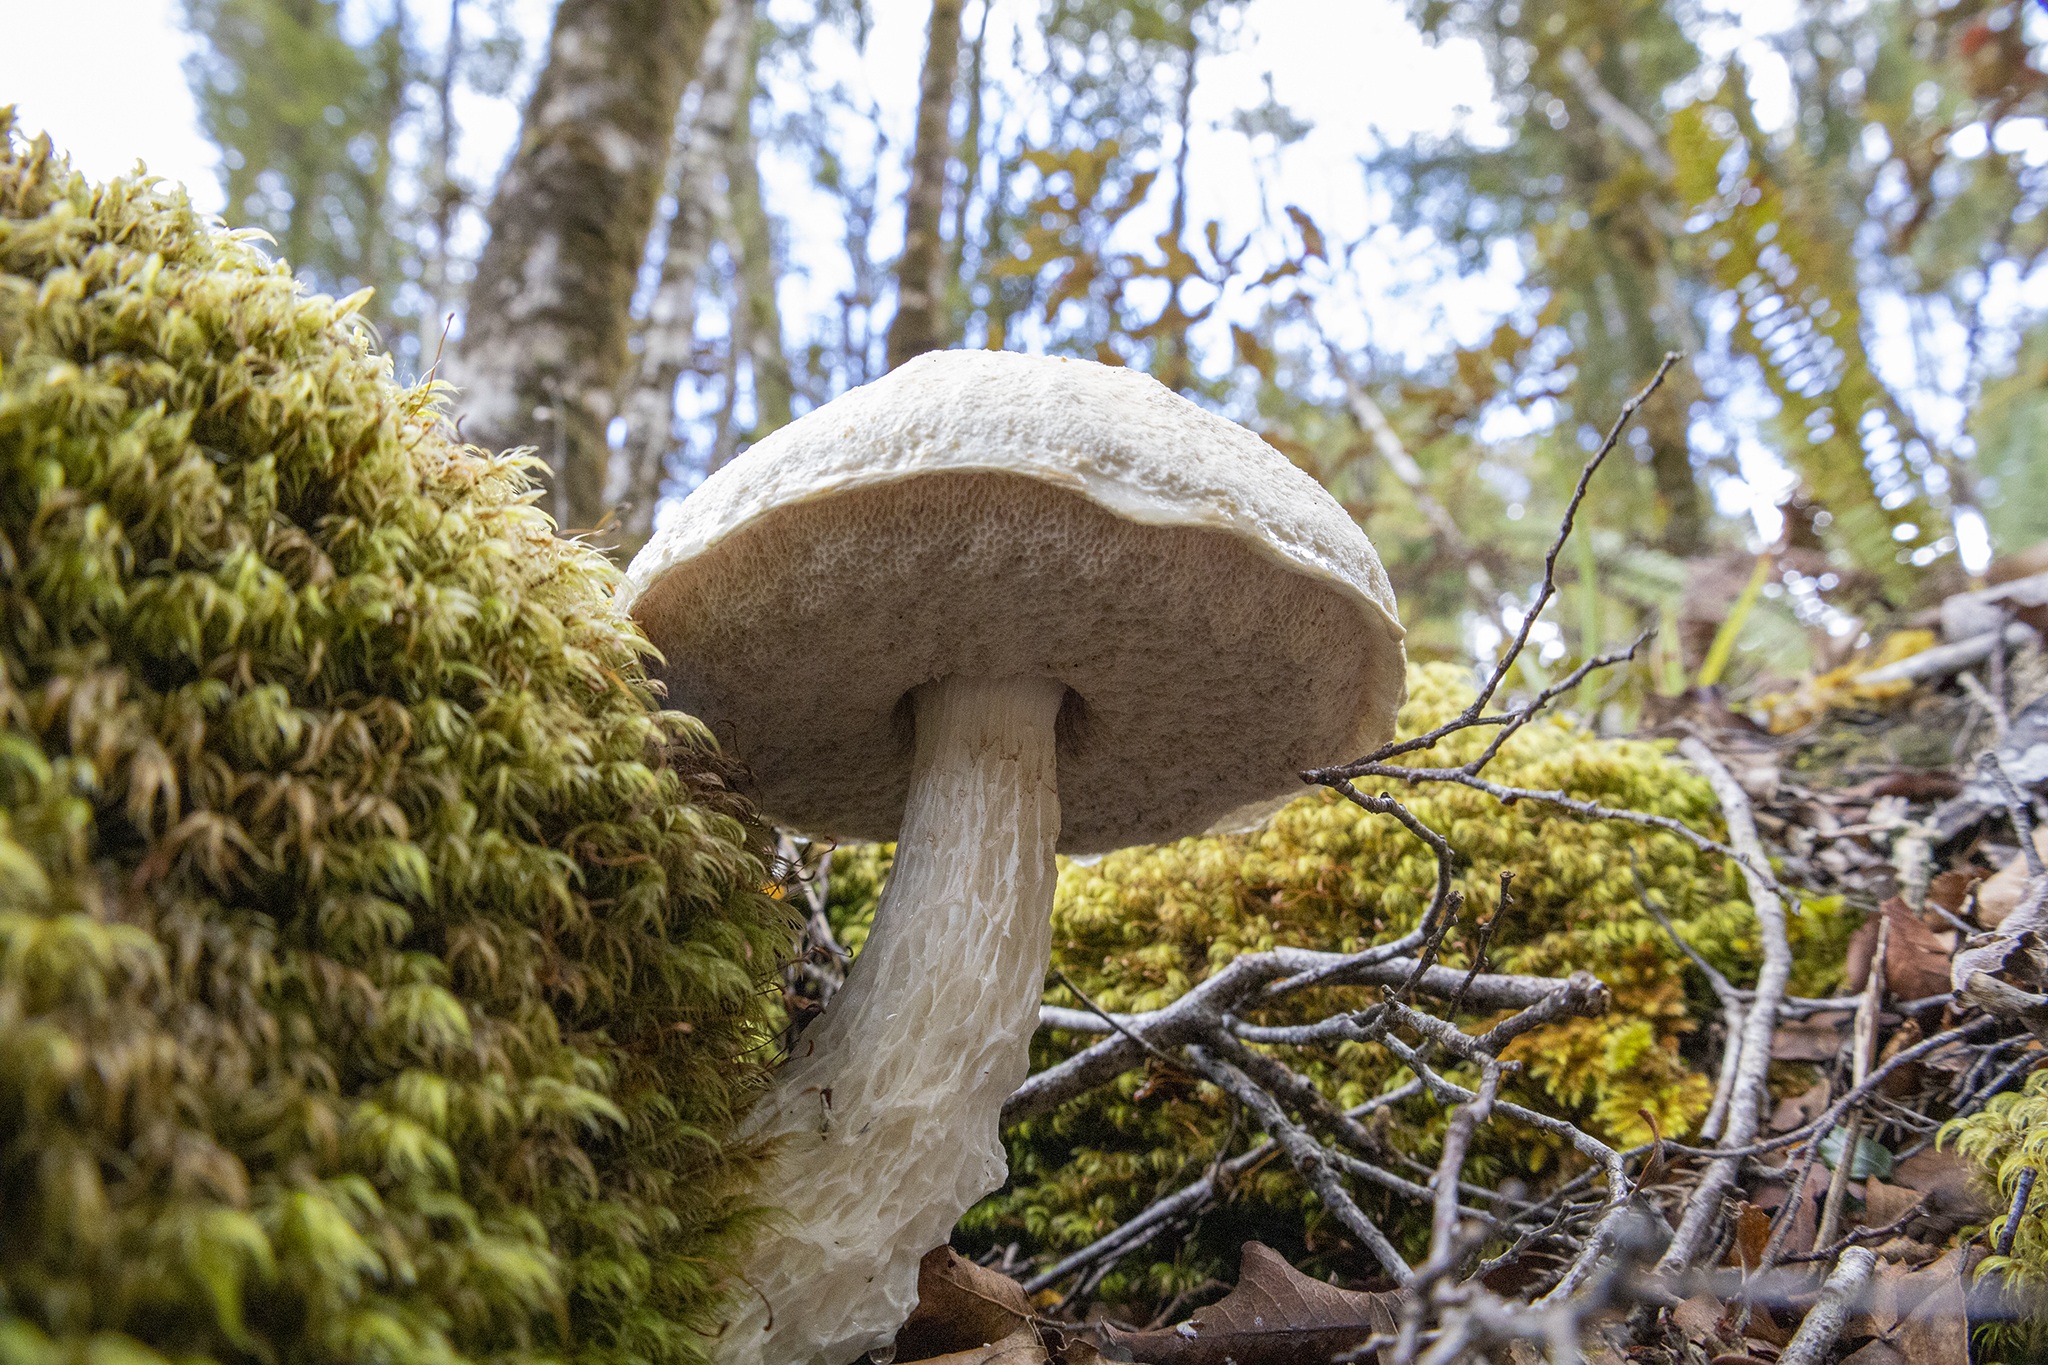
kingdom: Fungi
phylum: Basidiomycota
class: Agaricomycetes
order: Boletales
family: Boletaceae
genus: Fistulinella
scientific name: Fistulinella nivea
